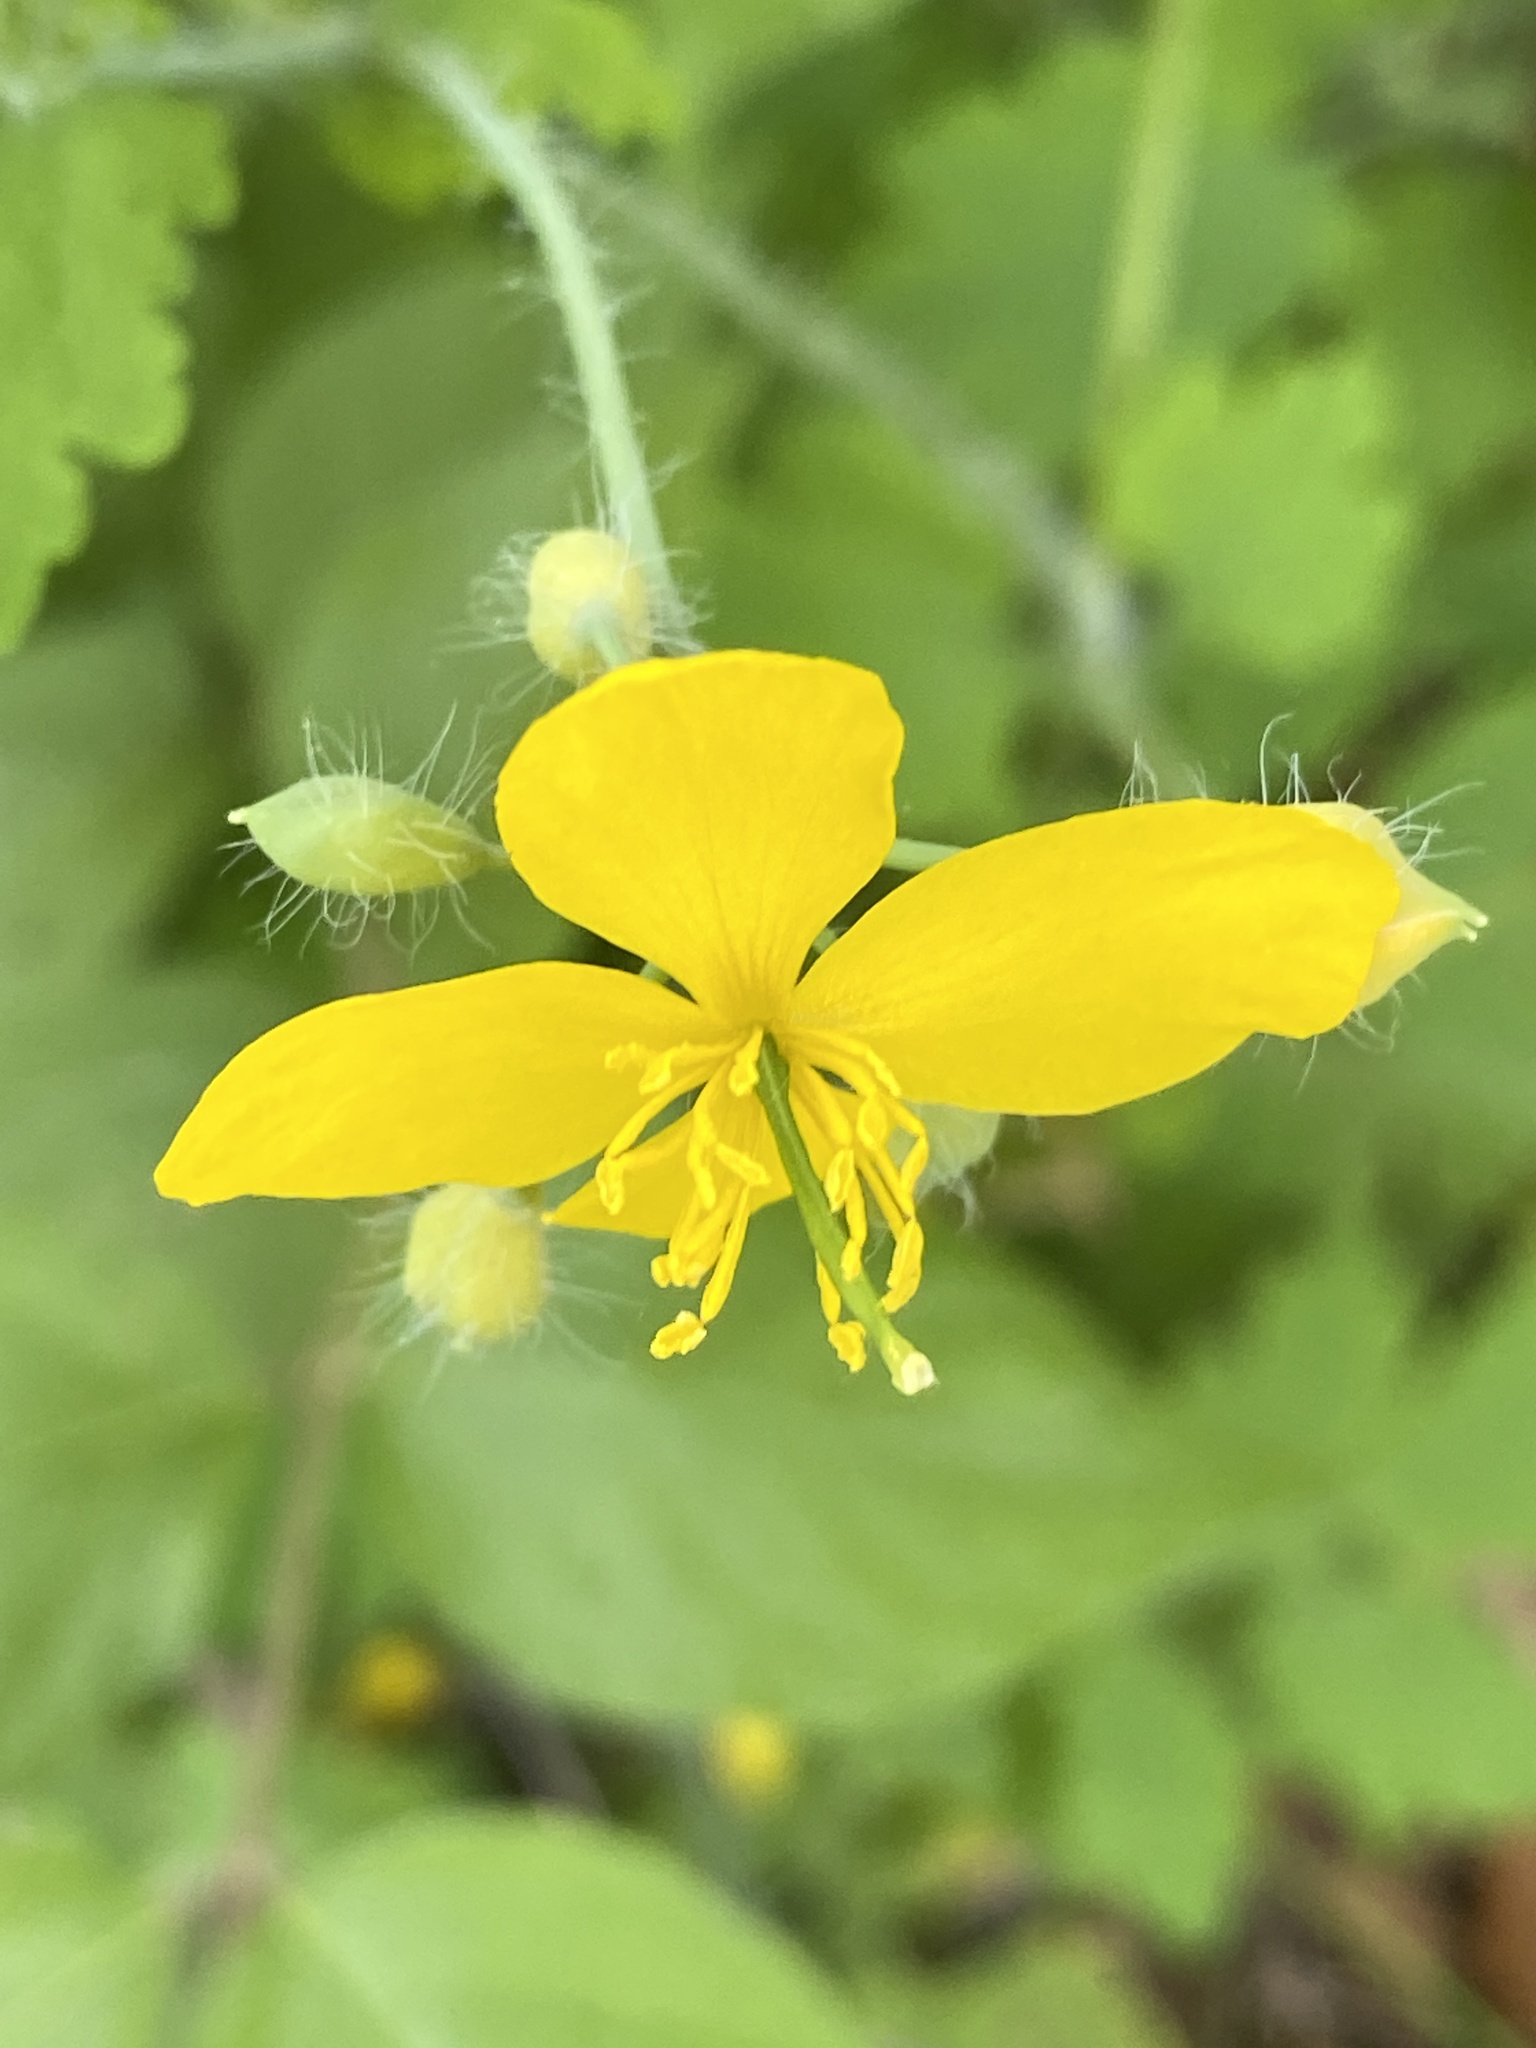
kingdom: Plantae
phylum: Tracheophyta
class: Magnoliopsida
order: Ranunculales
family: Papaveraceae
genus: Chelidonium
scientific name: Chelidonium majus
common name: Greater celandine
